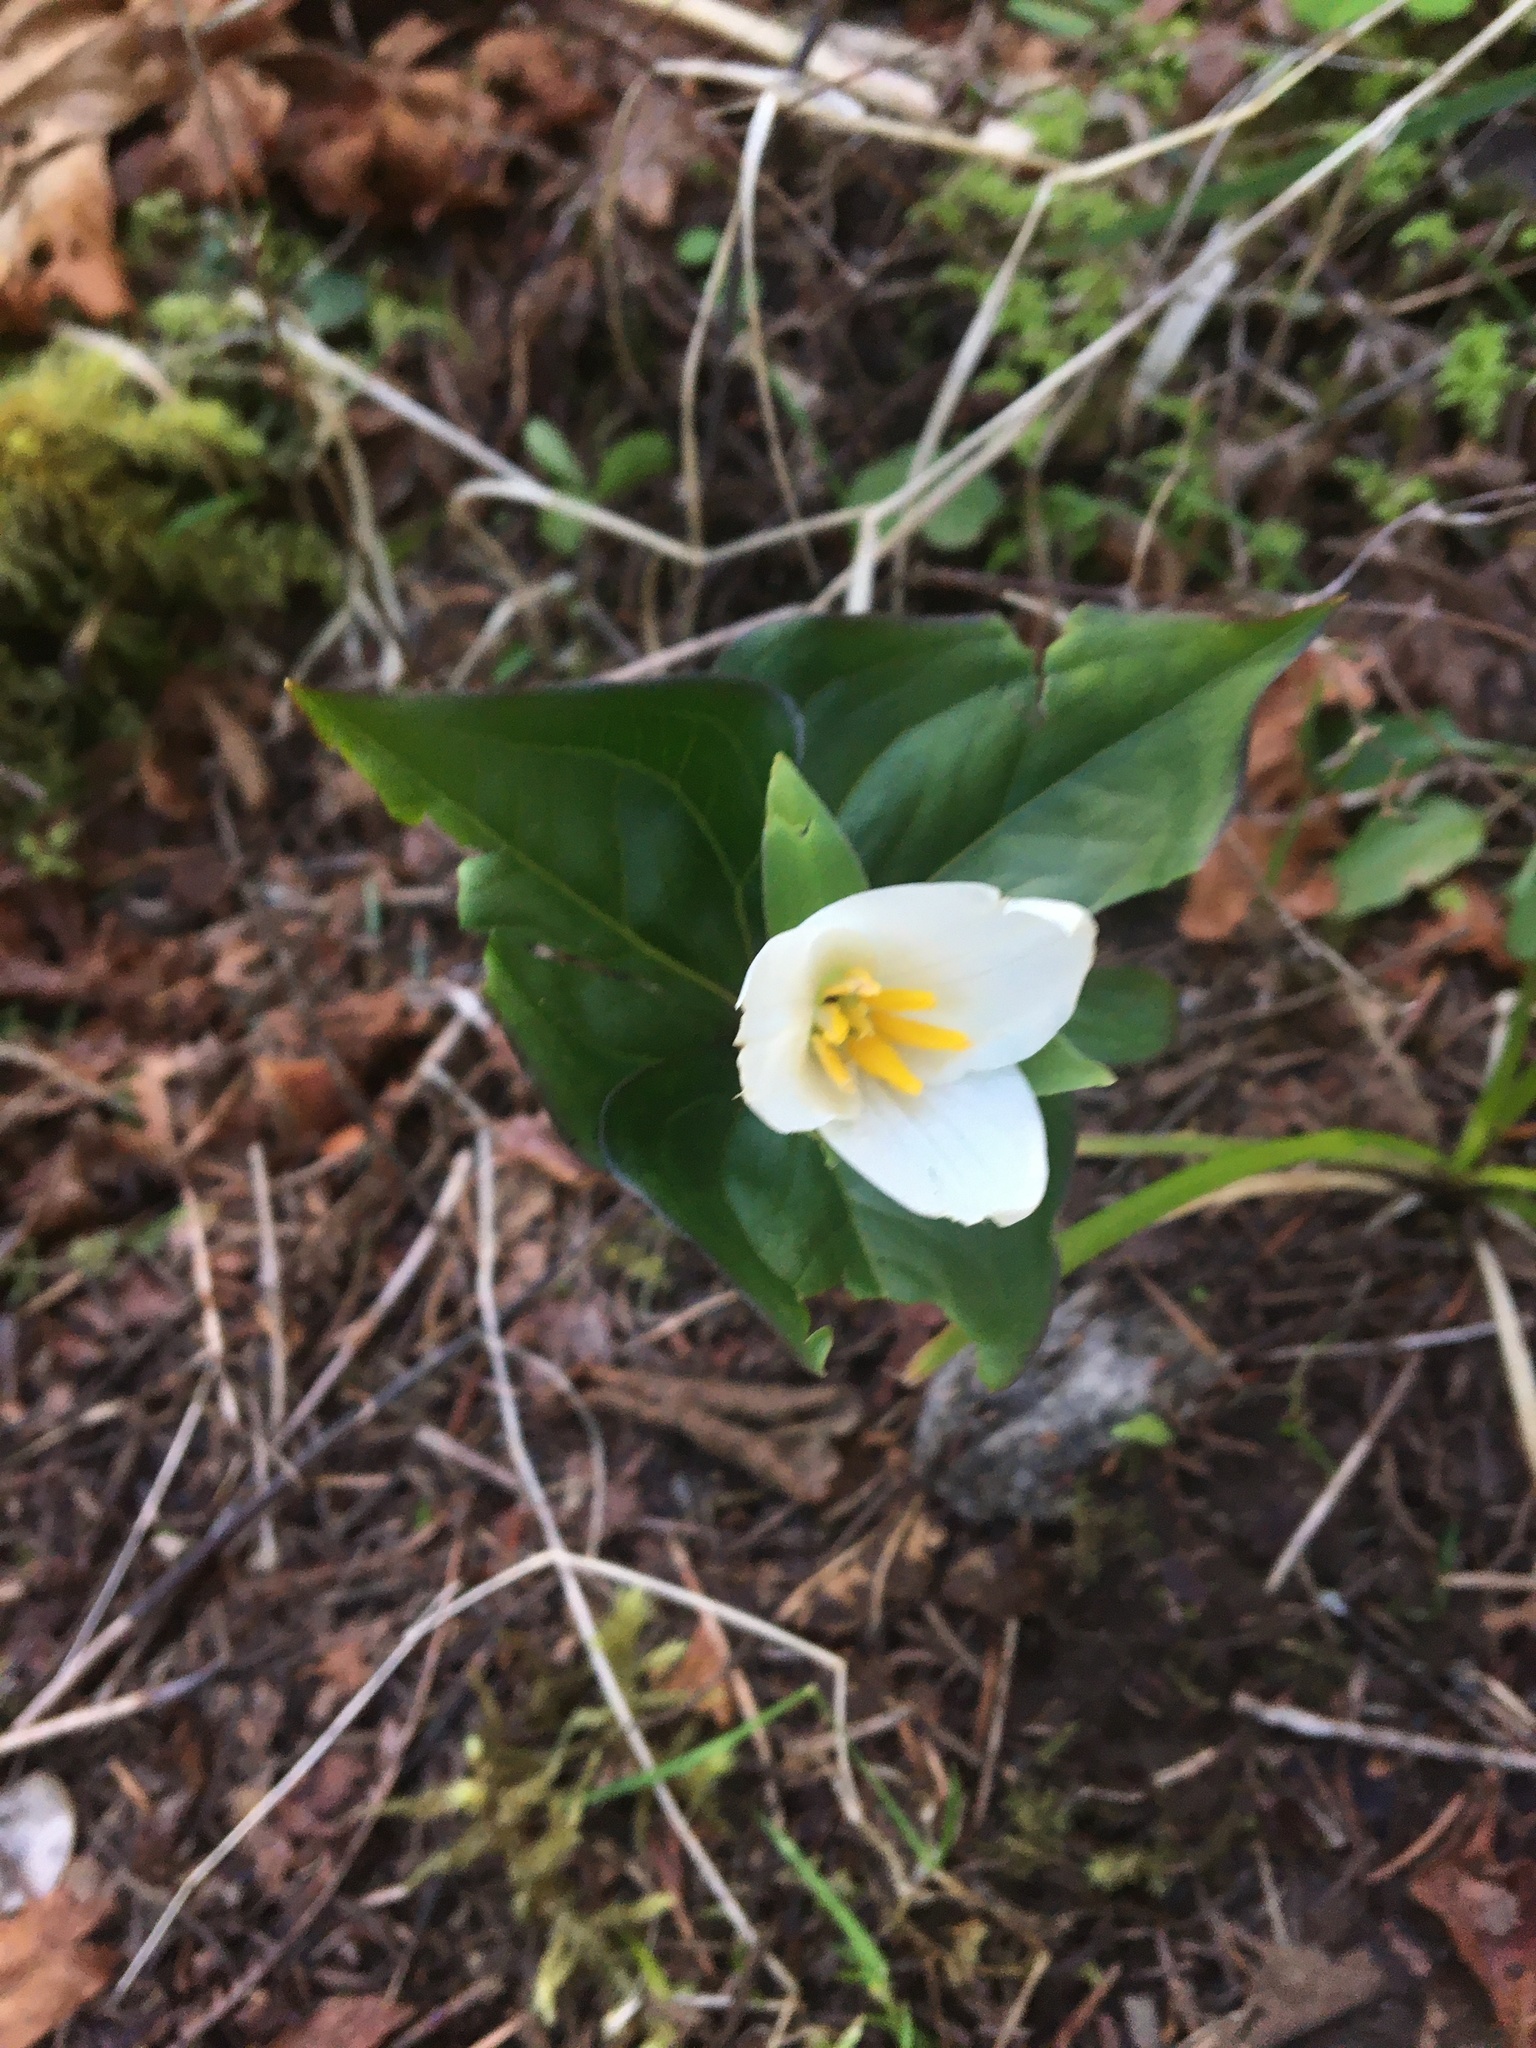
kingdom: Plantae
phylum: Tracheophyta
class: Liliopsida
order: Liliales
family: Melanthiaceae
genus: Trillium
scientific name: Trillium ovatum
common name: Pacific trillium
